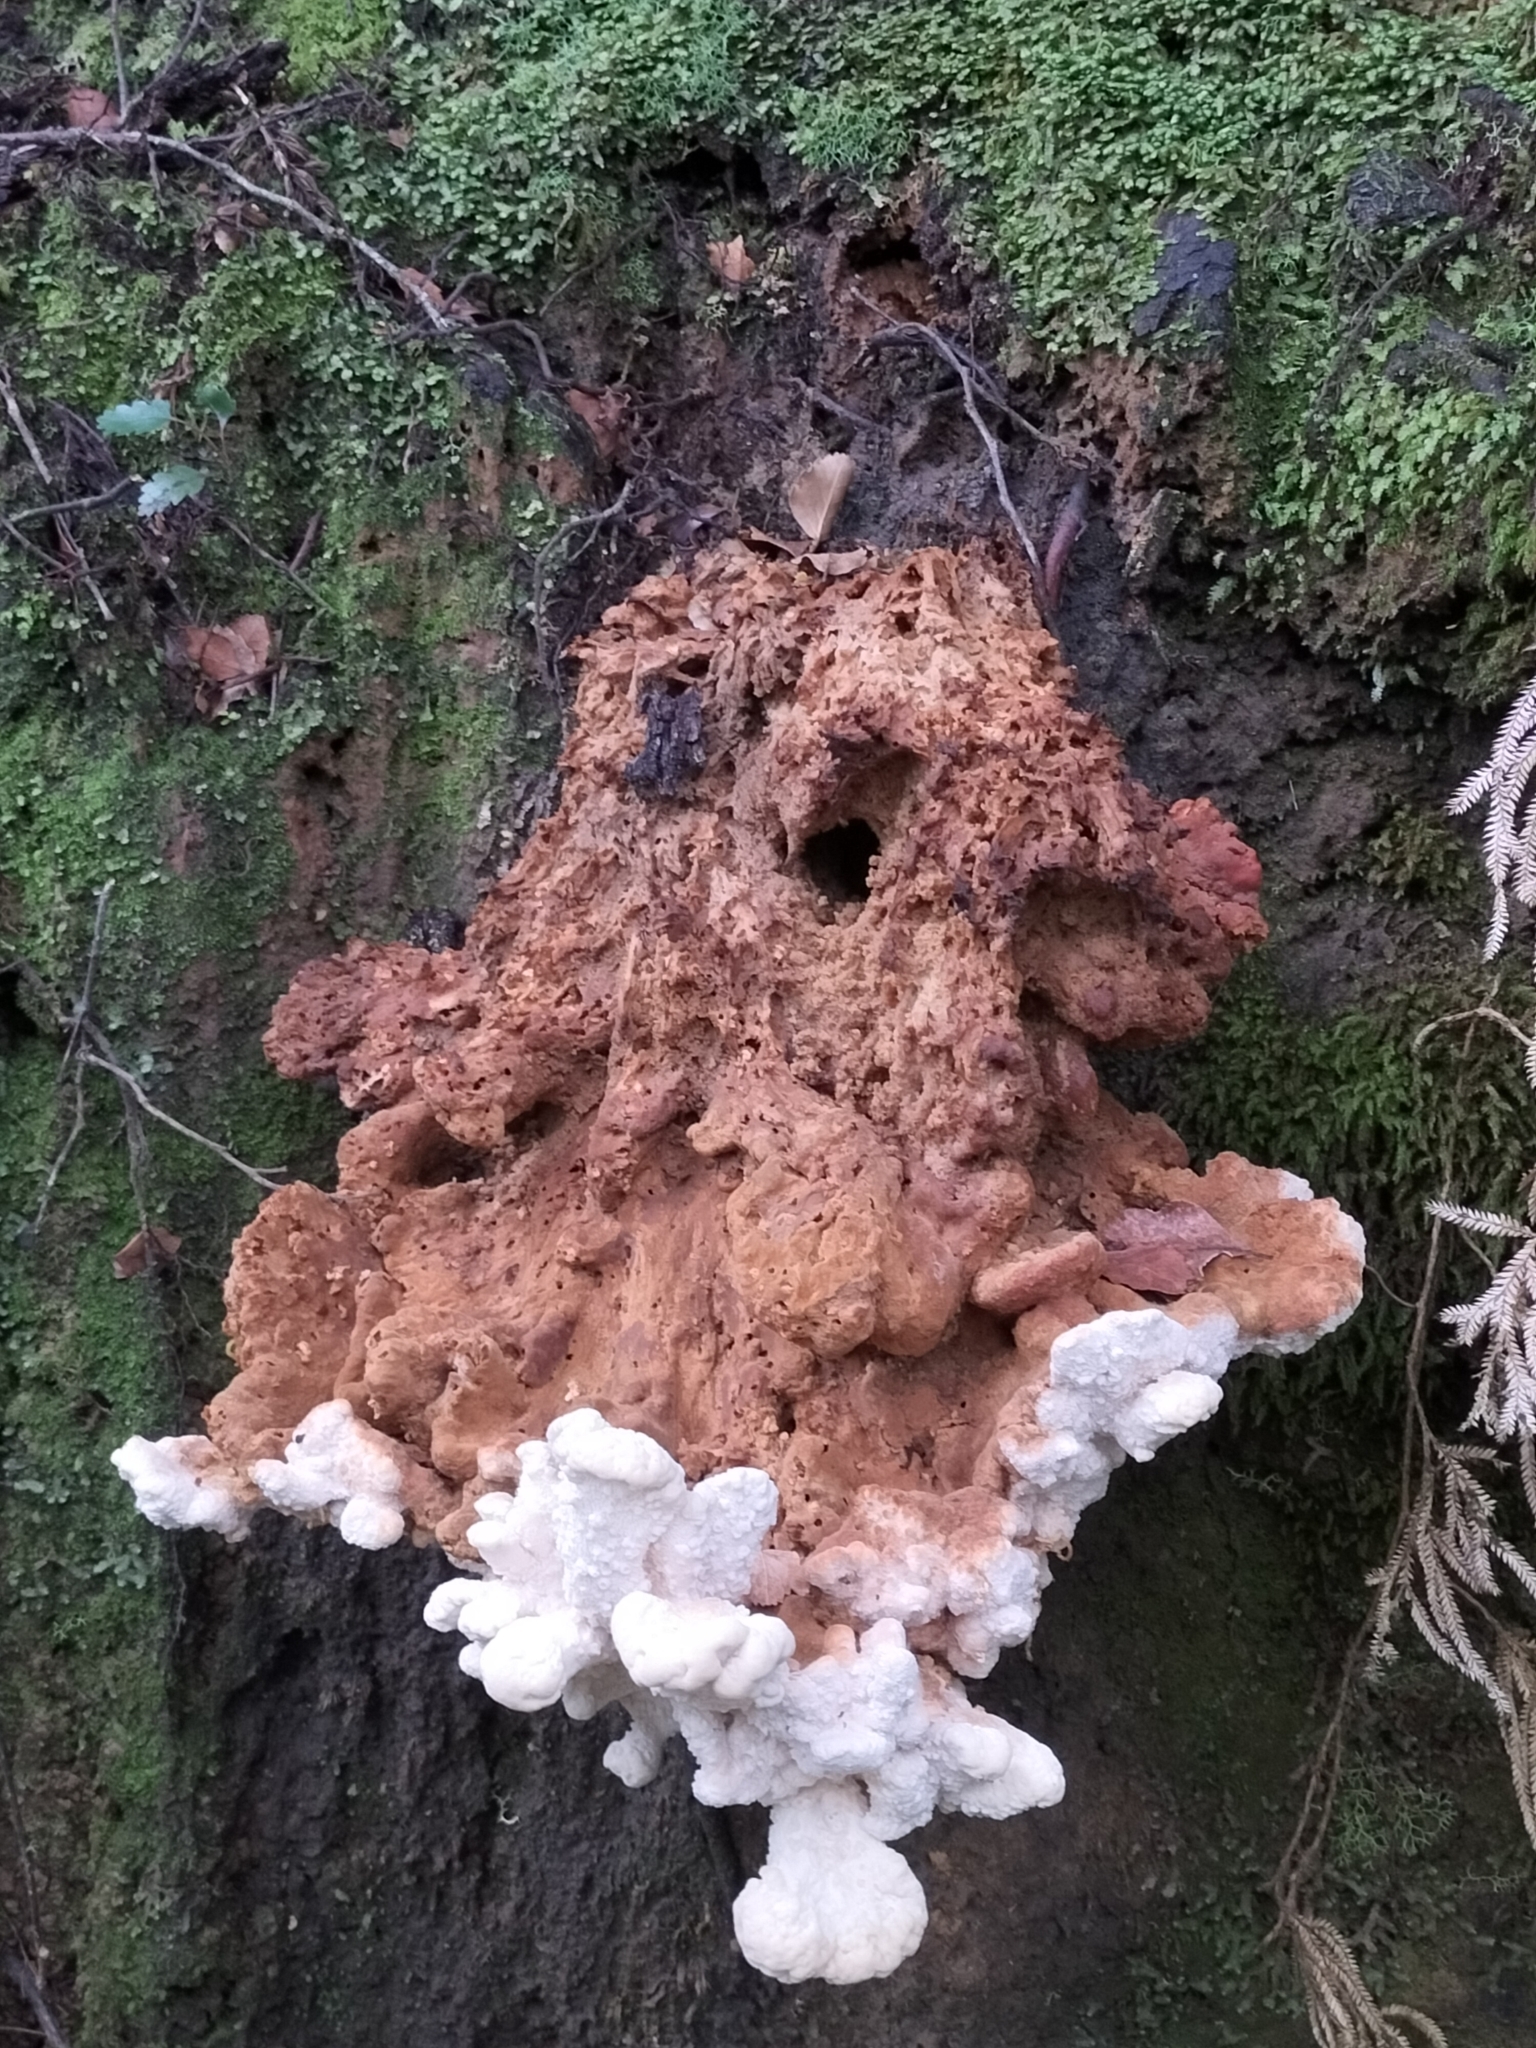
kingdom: Fungi
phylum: Basidiomycota
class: Agaricomycetes
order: Russulales
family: Bondarzewiaceae
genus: Bondarzewia
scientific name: Bondarzewia kirkii
